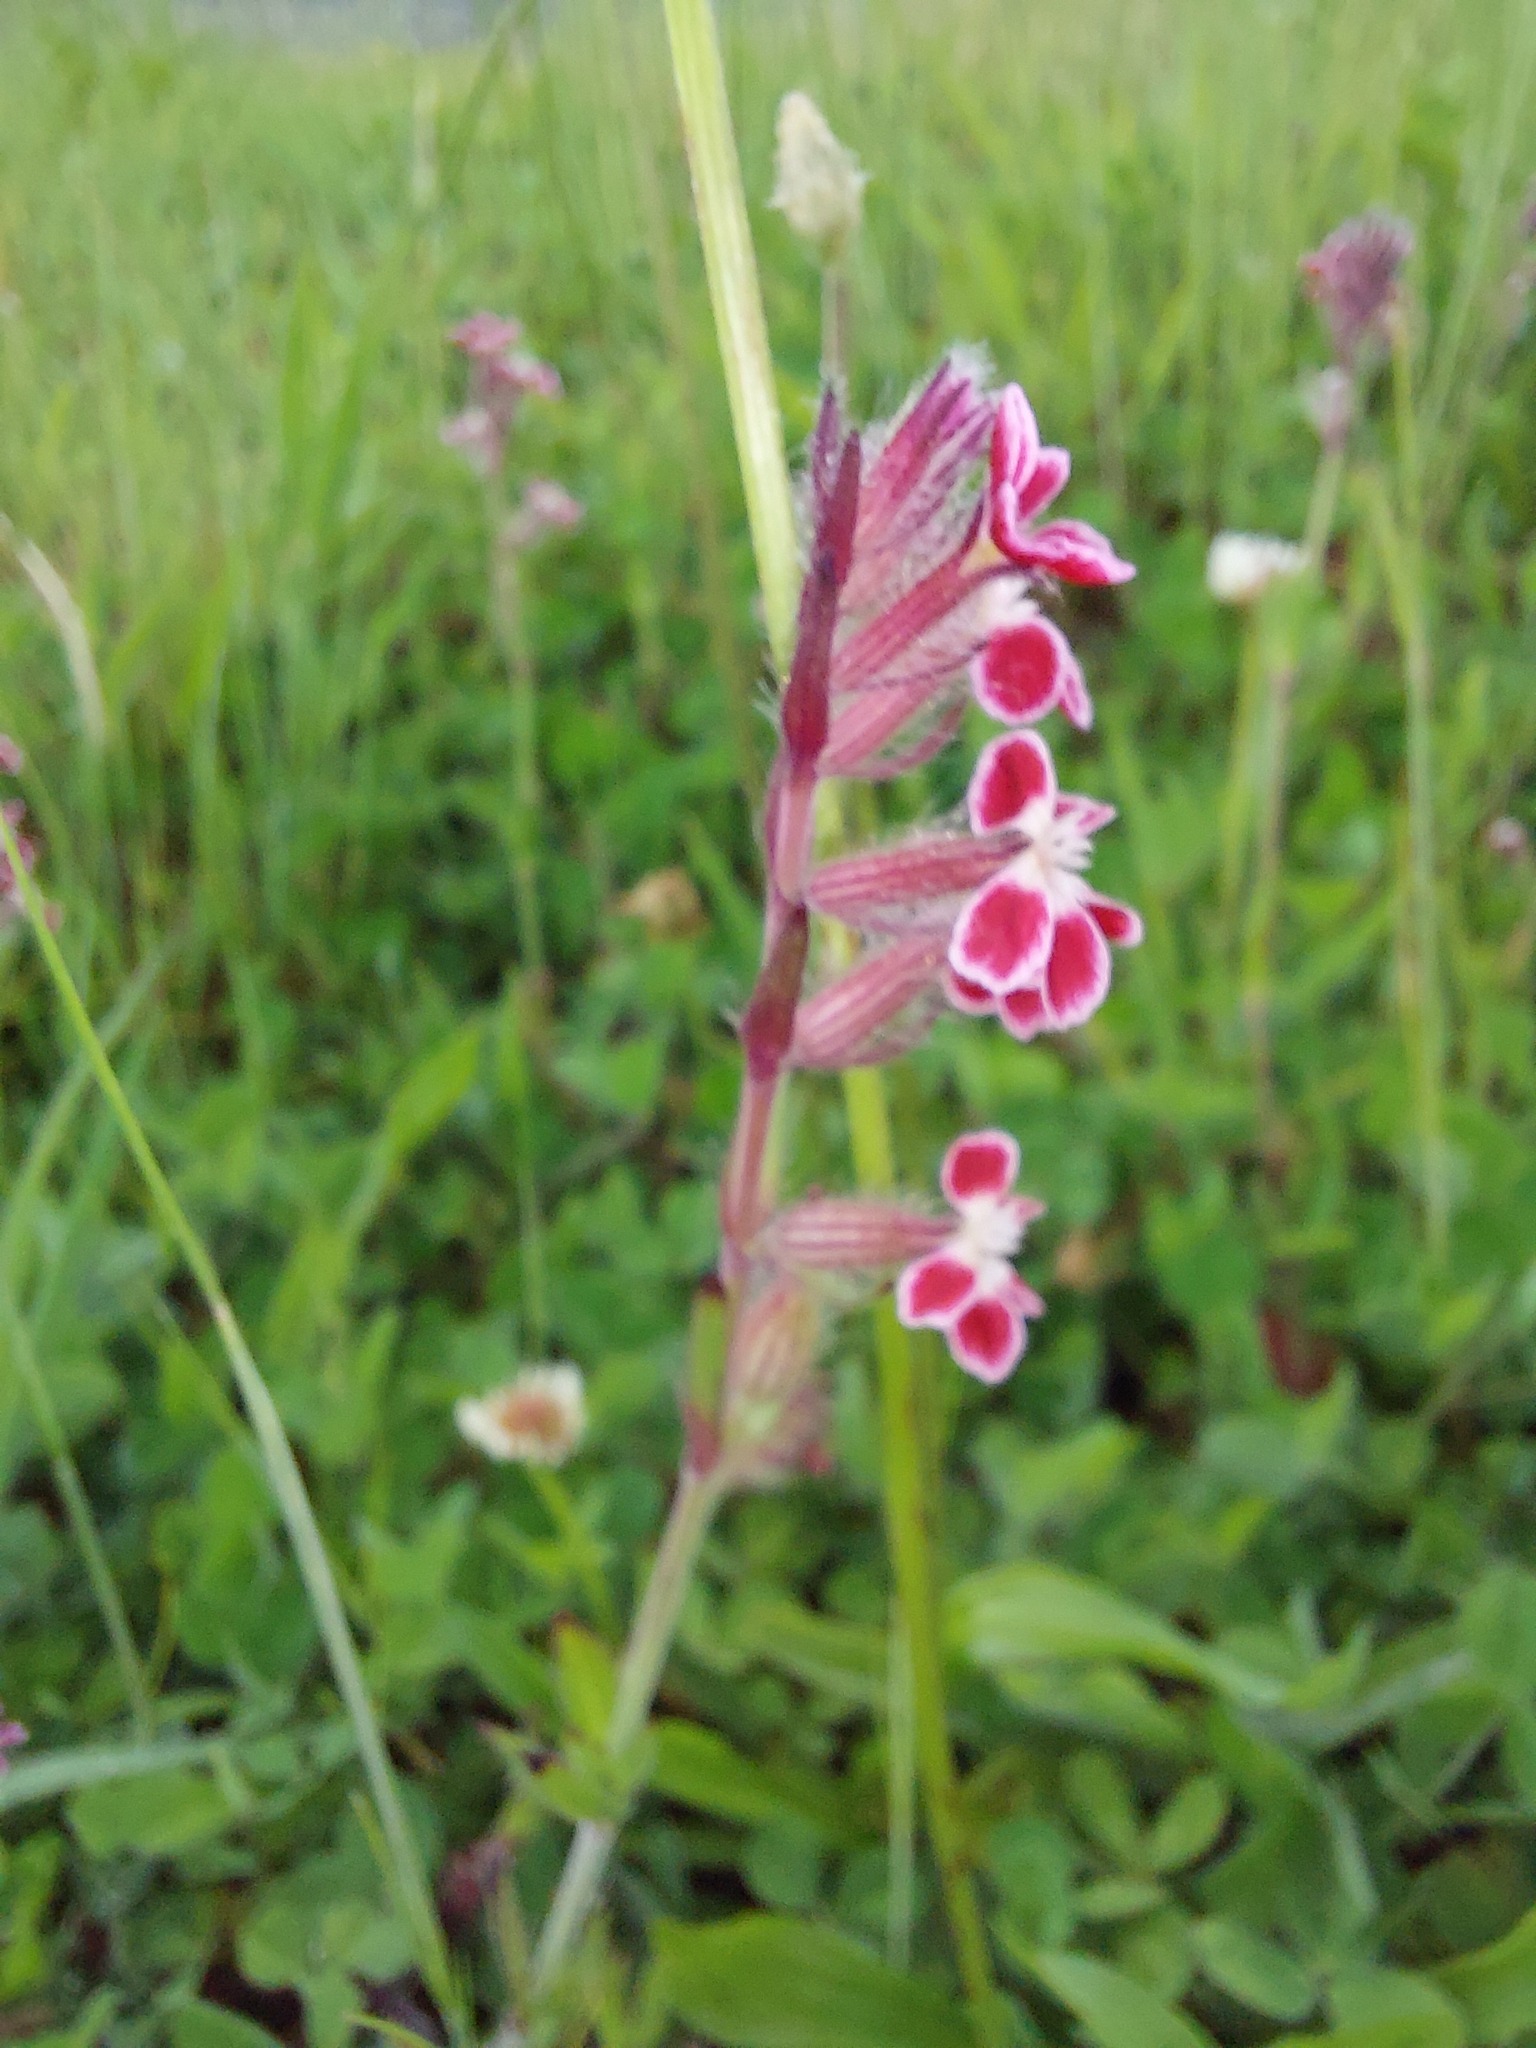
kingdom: Plantae
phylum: Tracheophyta
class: Magnoliopsida
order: Caryophyllales
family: Caryophyllaceae
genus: Silene
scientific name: Silene gallica
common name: Small-flowered catchfly
